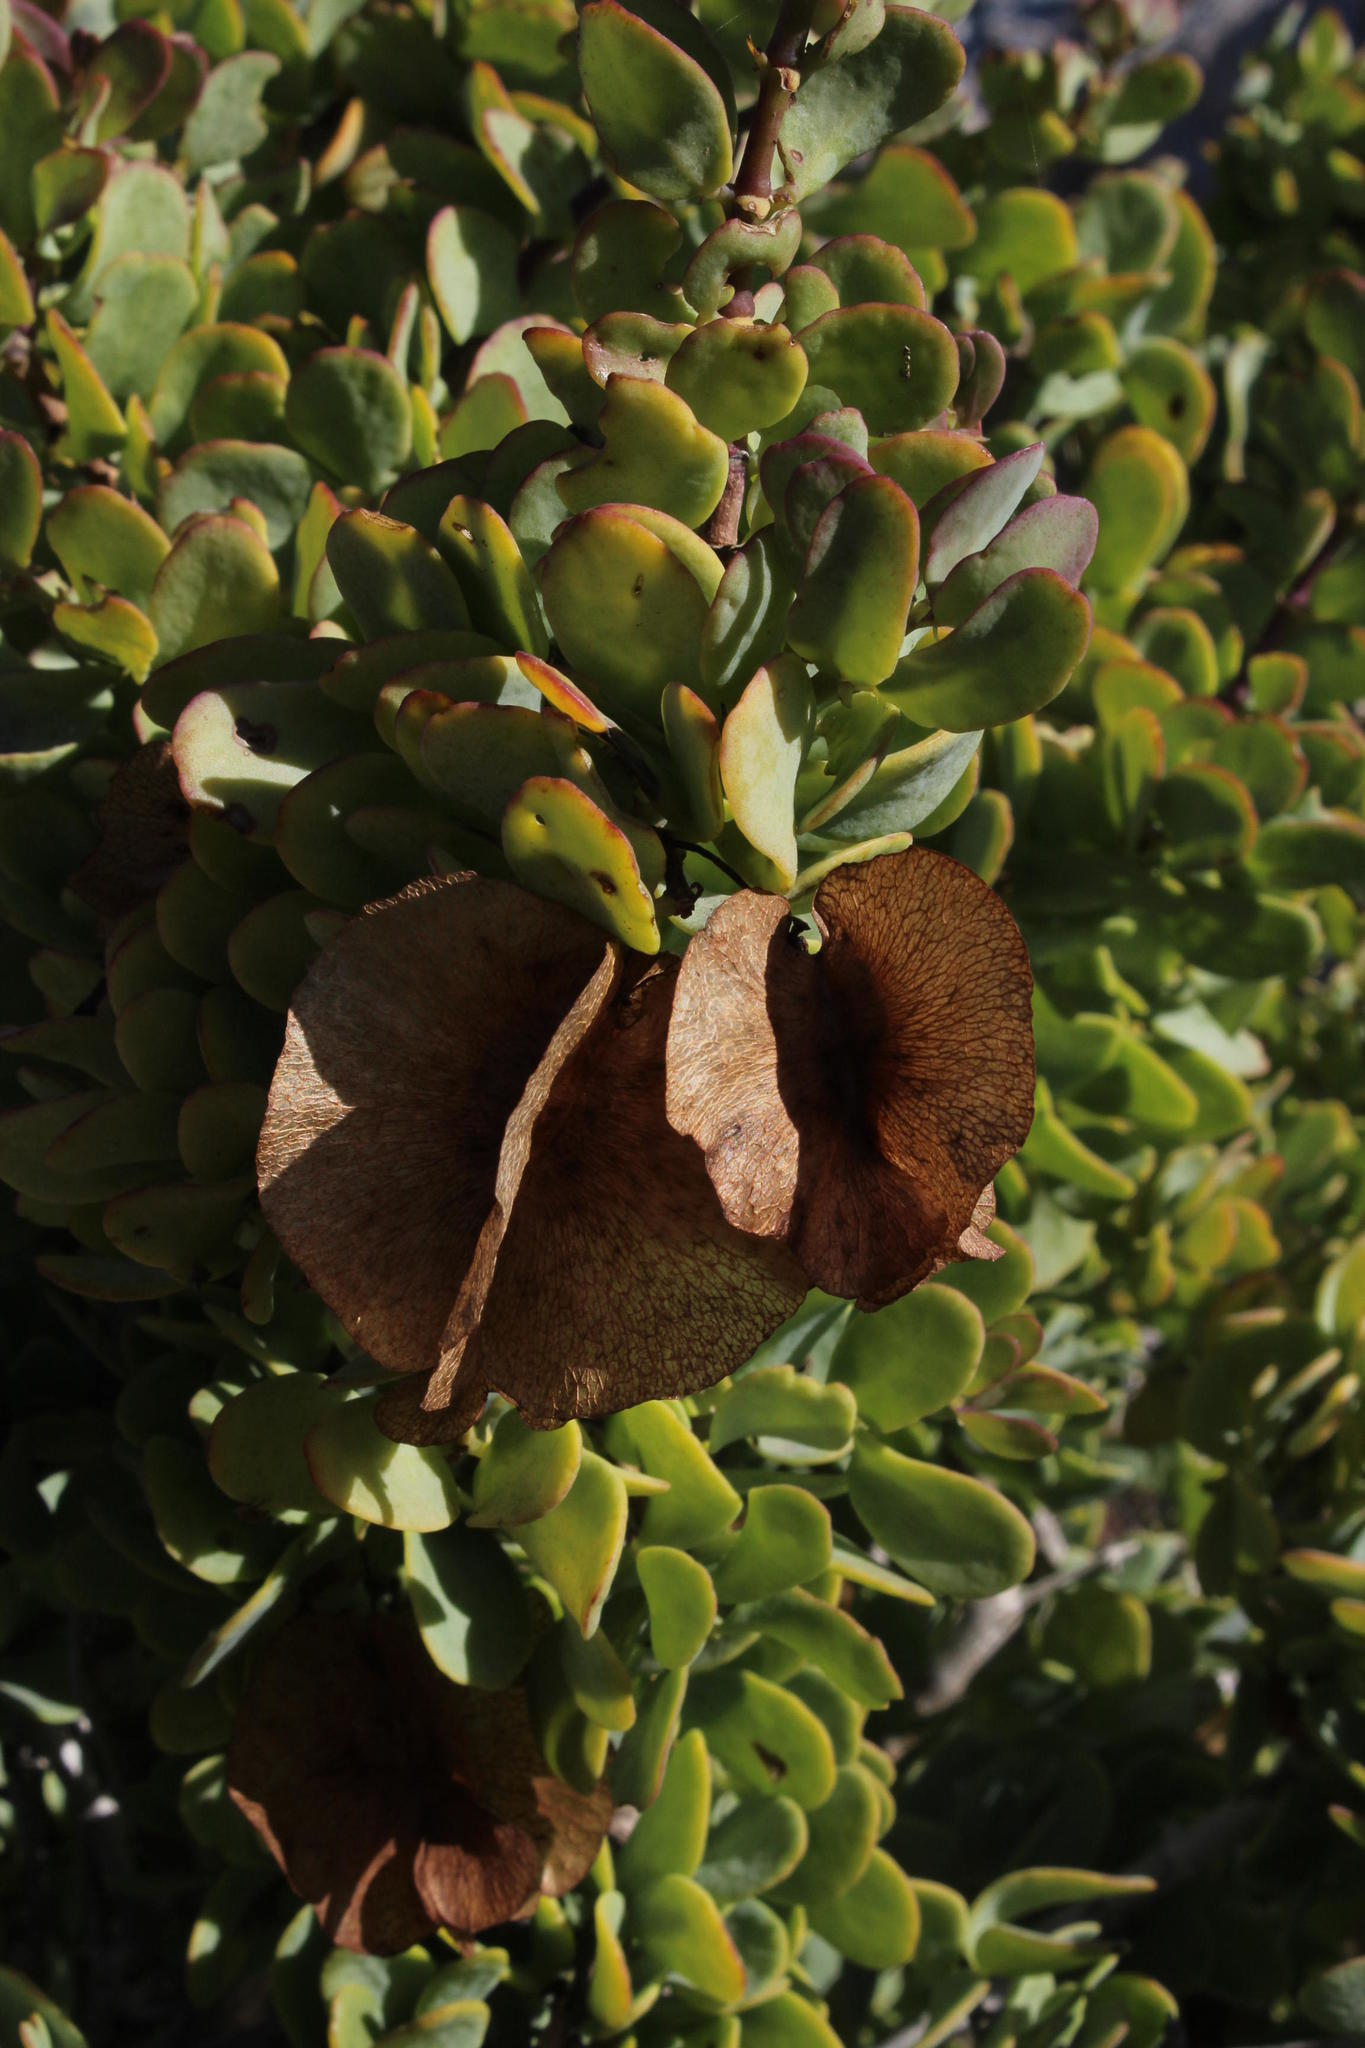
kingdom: Plantae
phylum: Tracheophyta
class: Magnoliopsida
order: Zygophyllales
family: Zygophyllaceae
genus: Roepera
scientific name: Roepera morgsana
